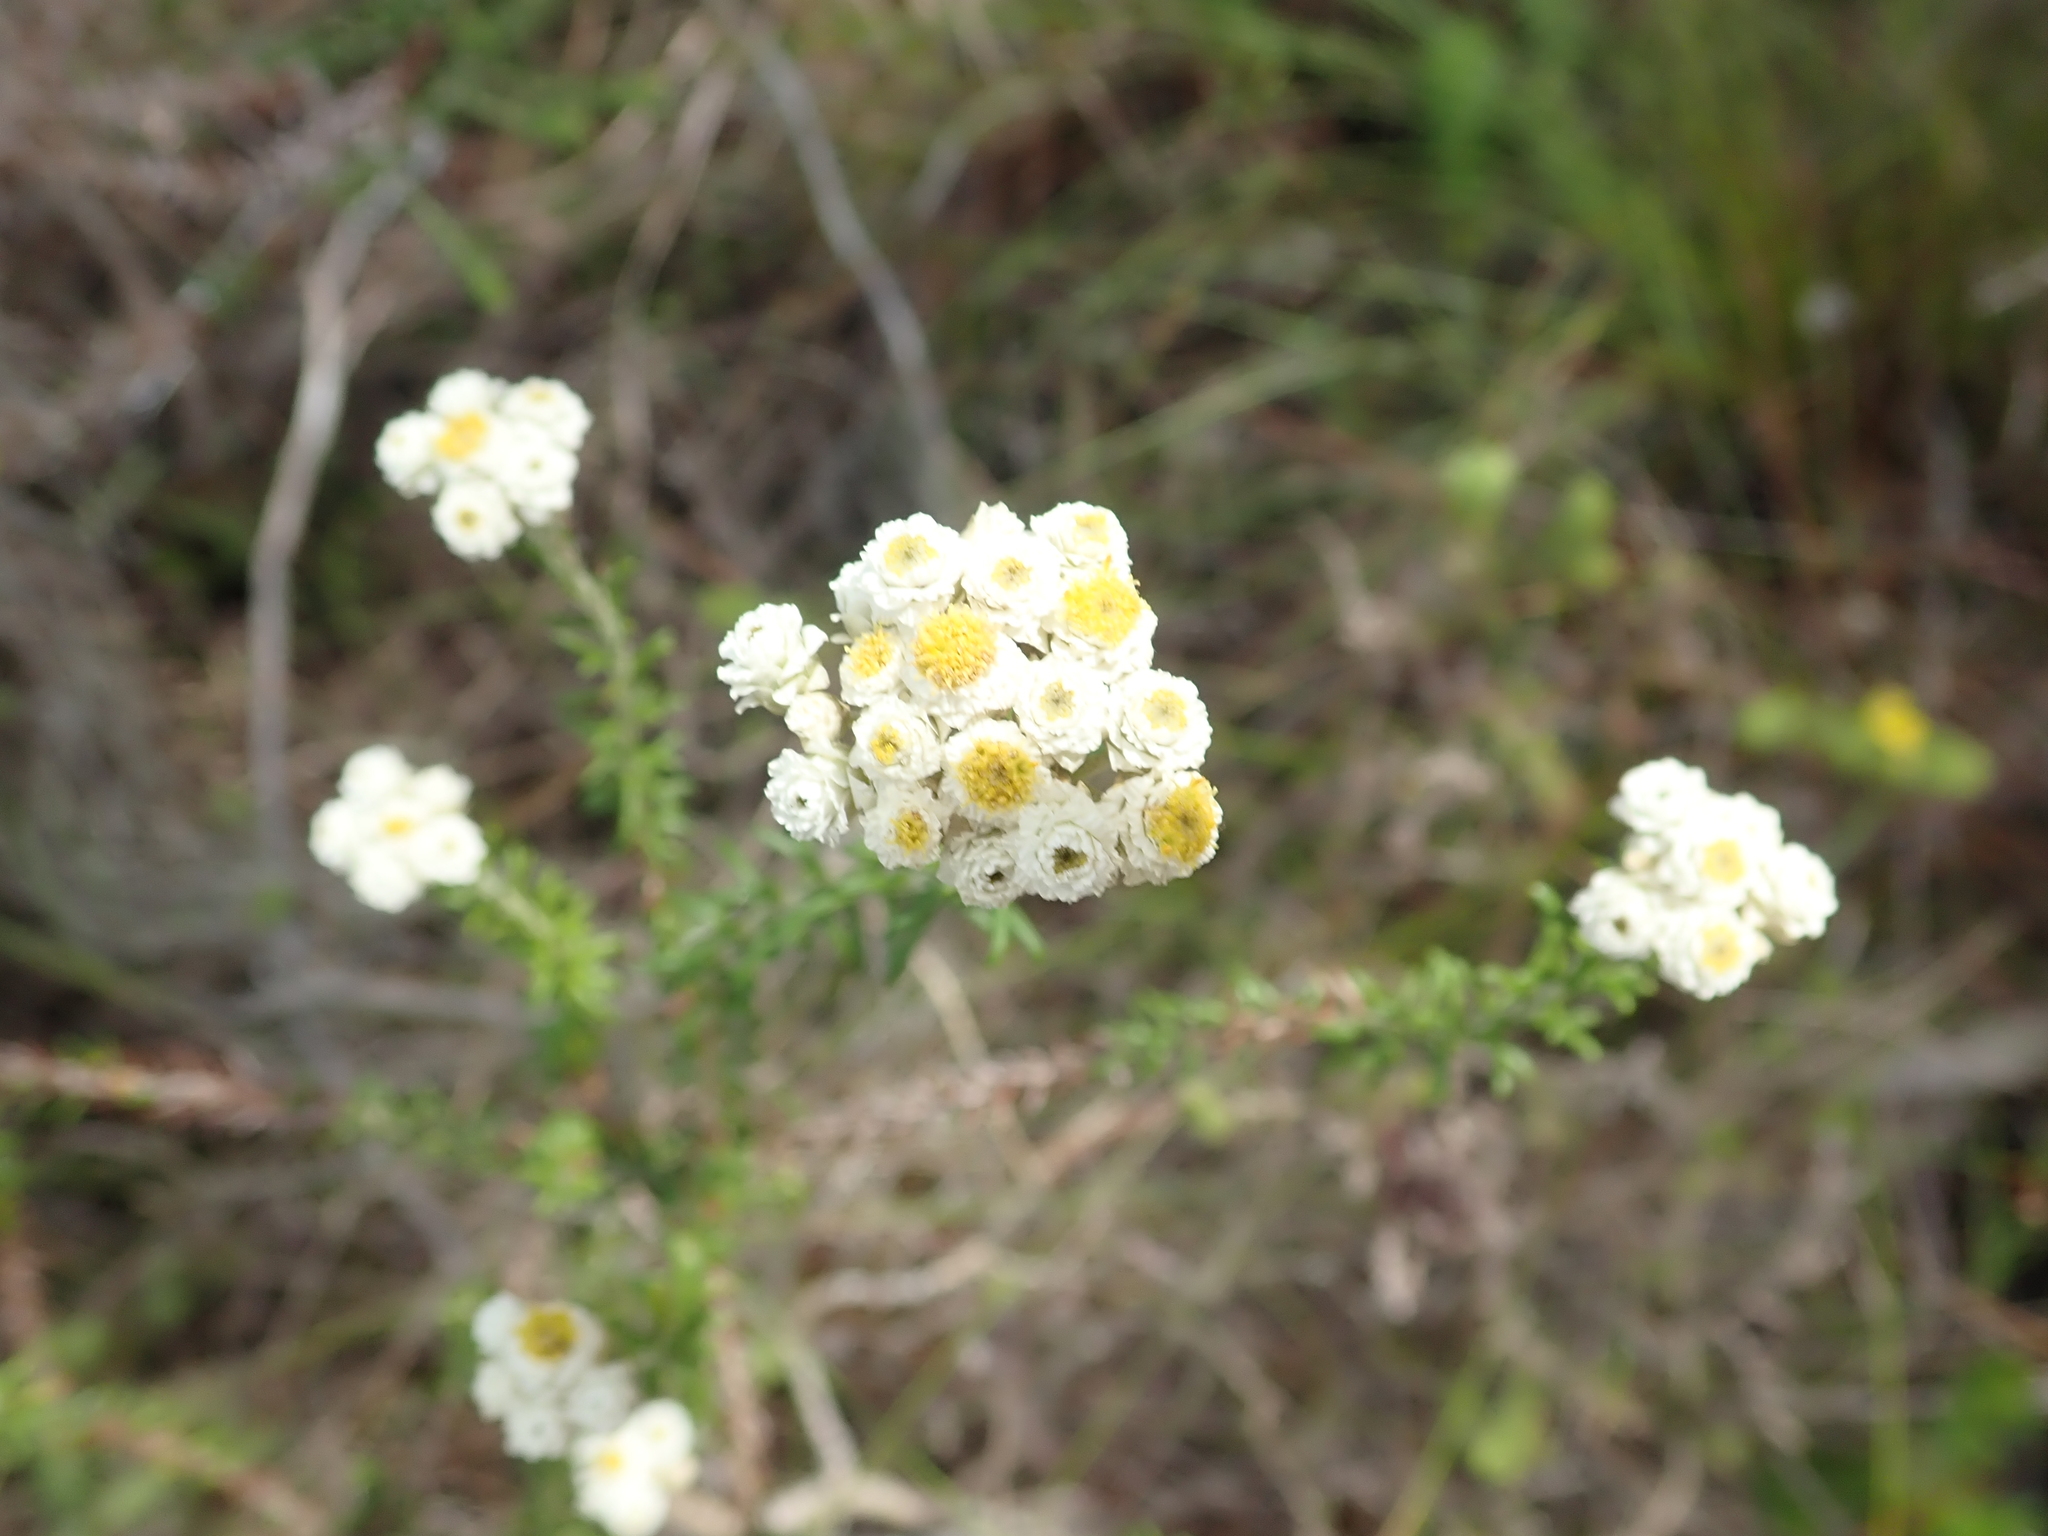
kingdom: Plantae
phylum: Tracheophyta
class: Magnoliopsida
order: Asterales
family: Asteraceae
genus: Helichrysum
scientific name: Helichrysum teretifolium
